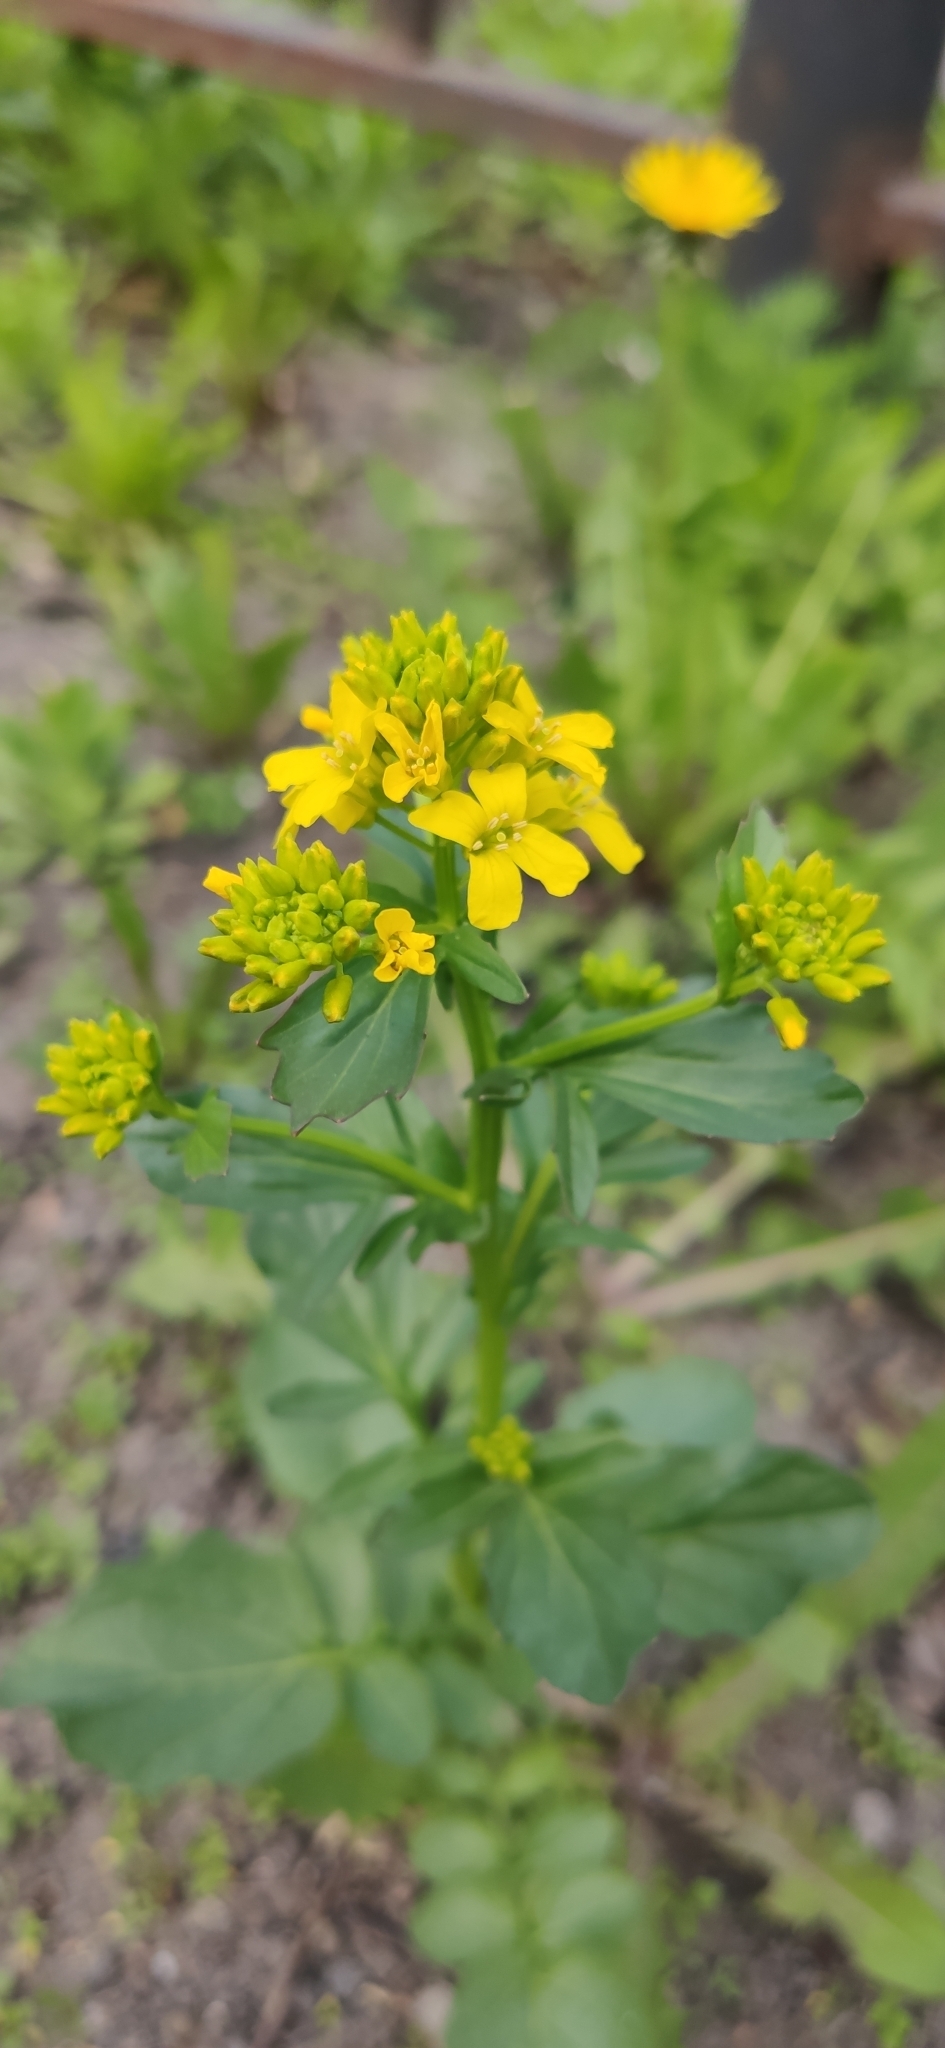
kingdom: Plantae
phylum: Tracheophyta
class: Magnoliopsida
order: Brassicales
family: Brassicaceae
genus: Barbarea
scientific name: Barbarea vulgaris
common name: Cressy-greens
